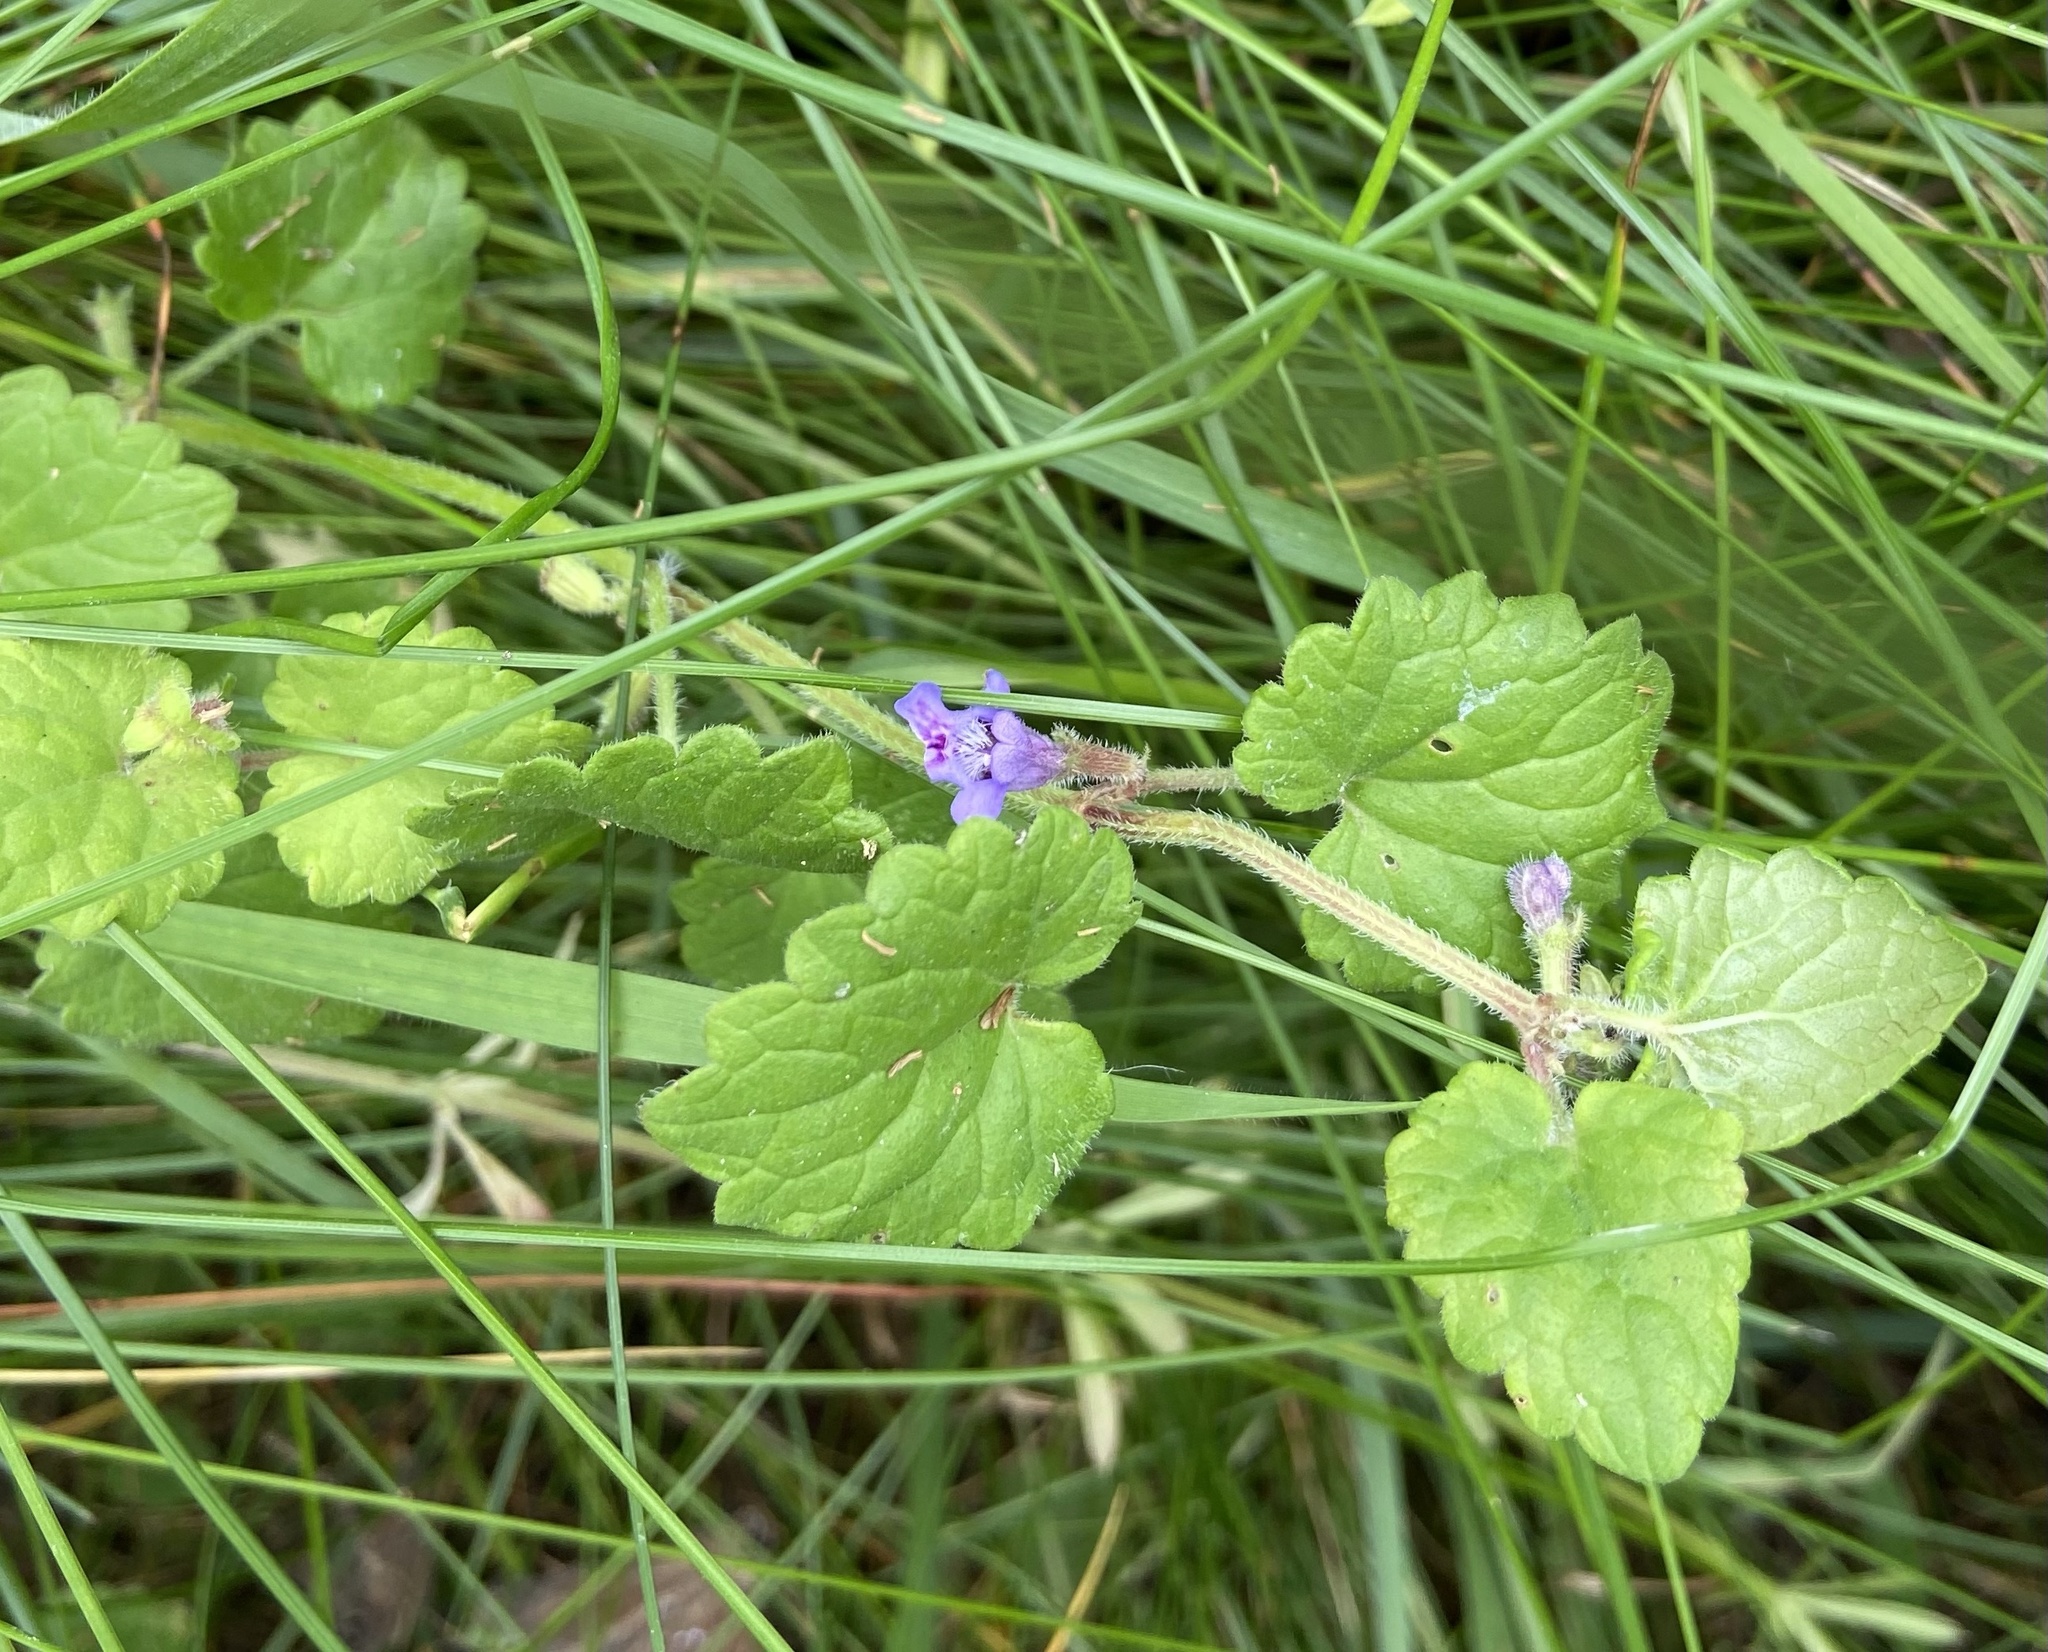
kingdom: Plantae
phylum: Tracheophyta
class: Magnoliopsida
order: Lamiales
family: Lamiaceae
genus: Glechoma
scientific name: Glechoma hederacea
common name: Ground ivy
